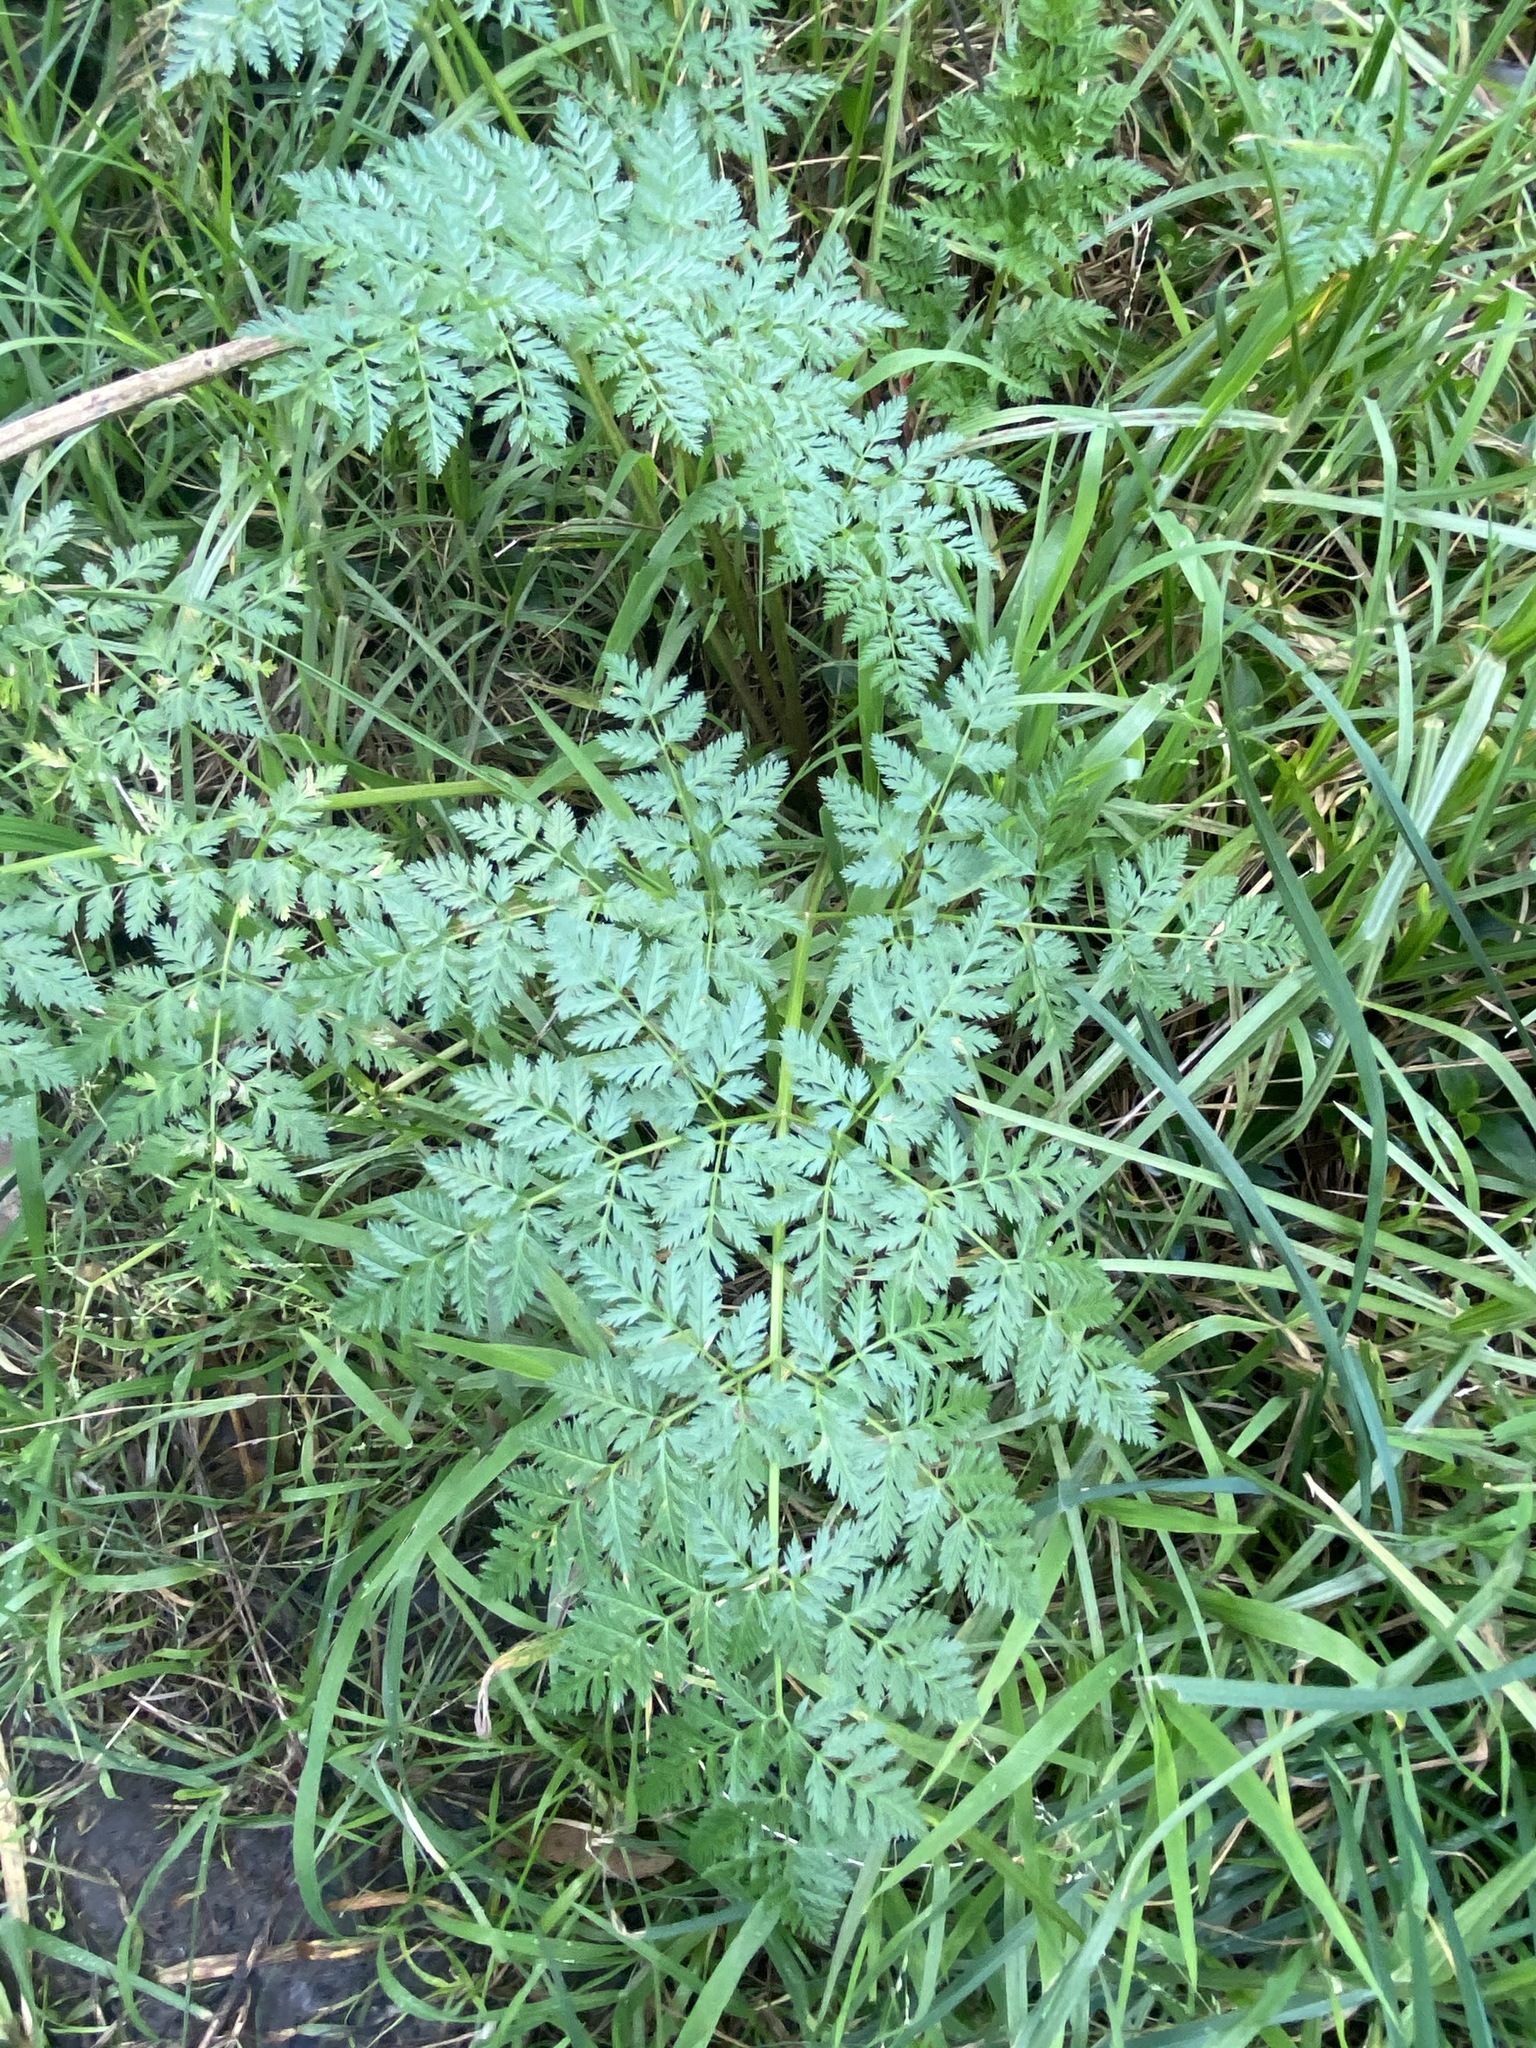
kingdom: Plantae
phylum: Tracheophyta
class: Magnoliopsida
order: Apiales
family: Apiaceae
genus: Conium
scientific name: Conium maculatum
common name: Hemlock
